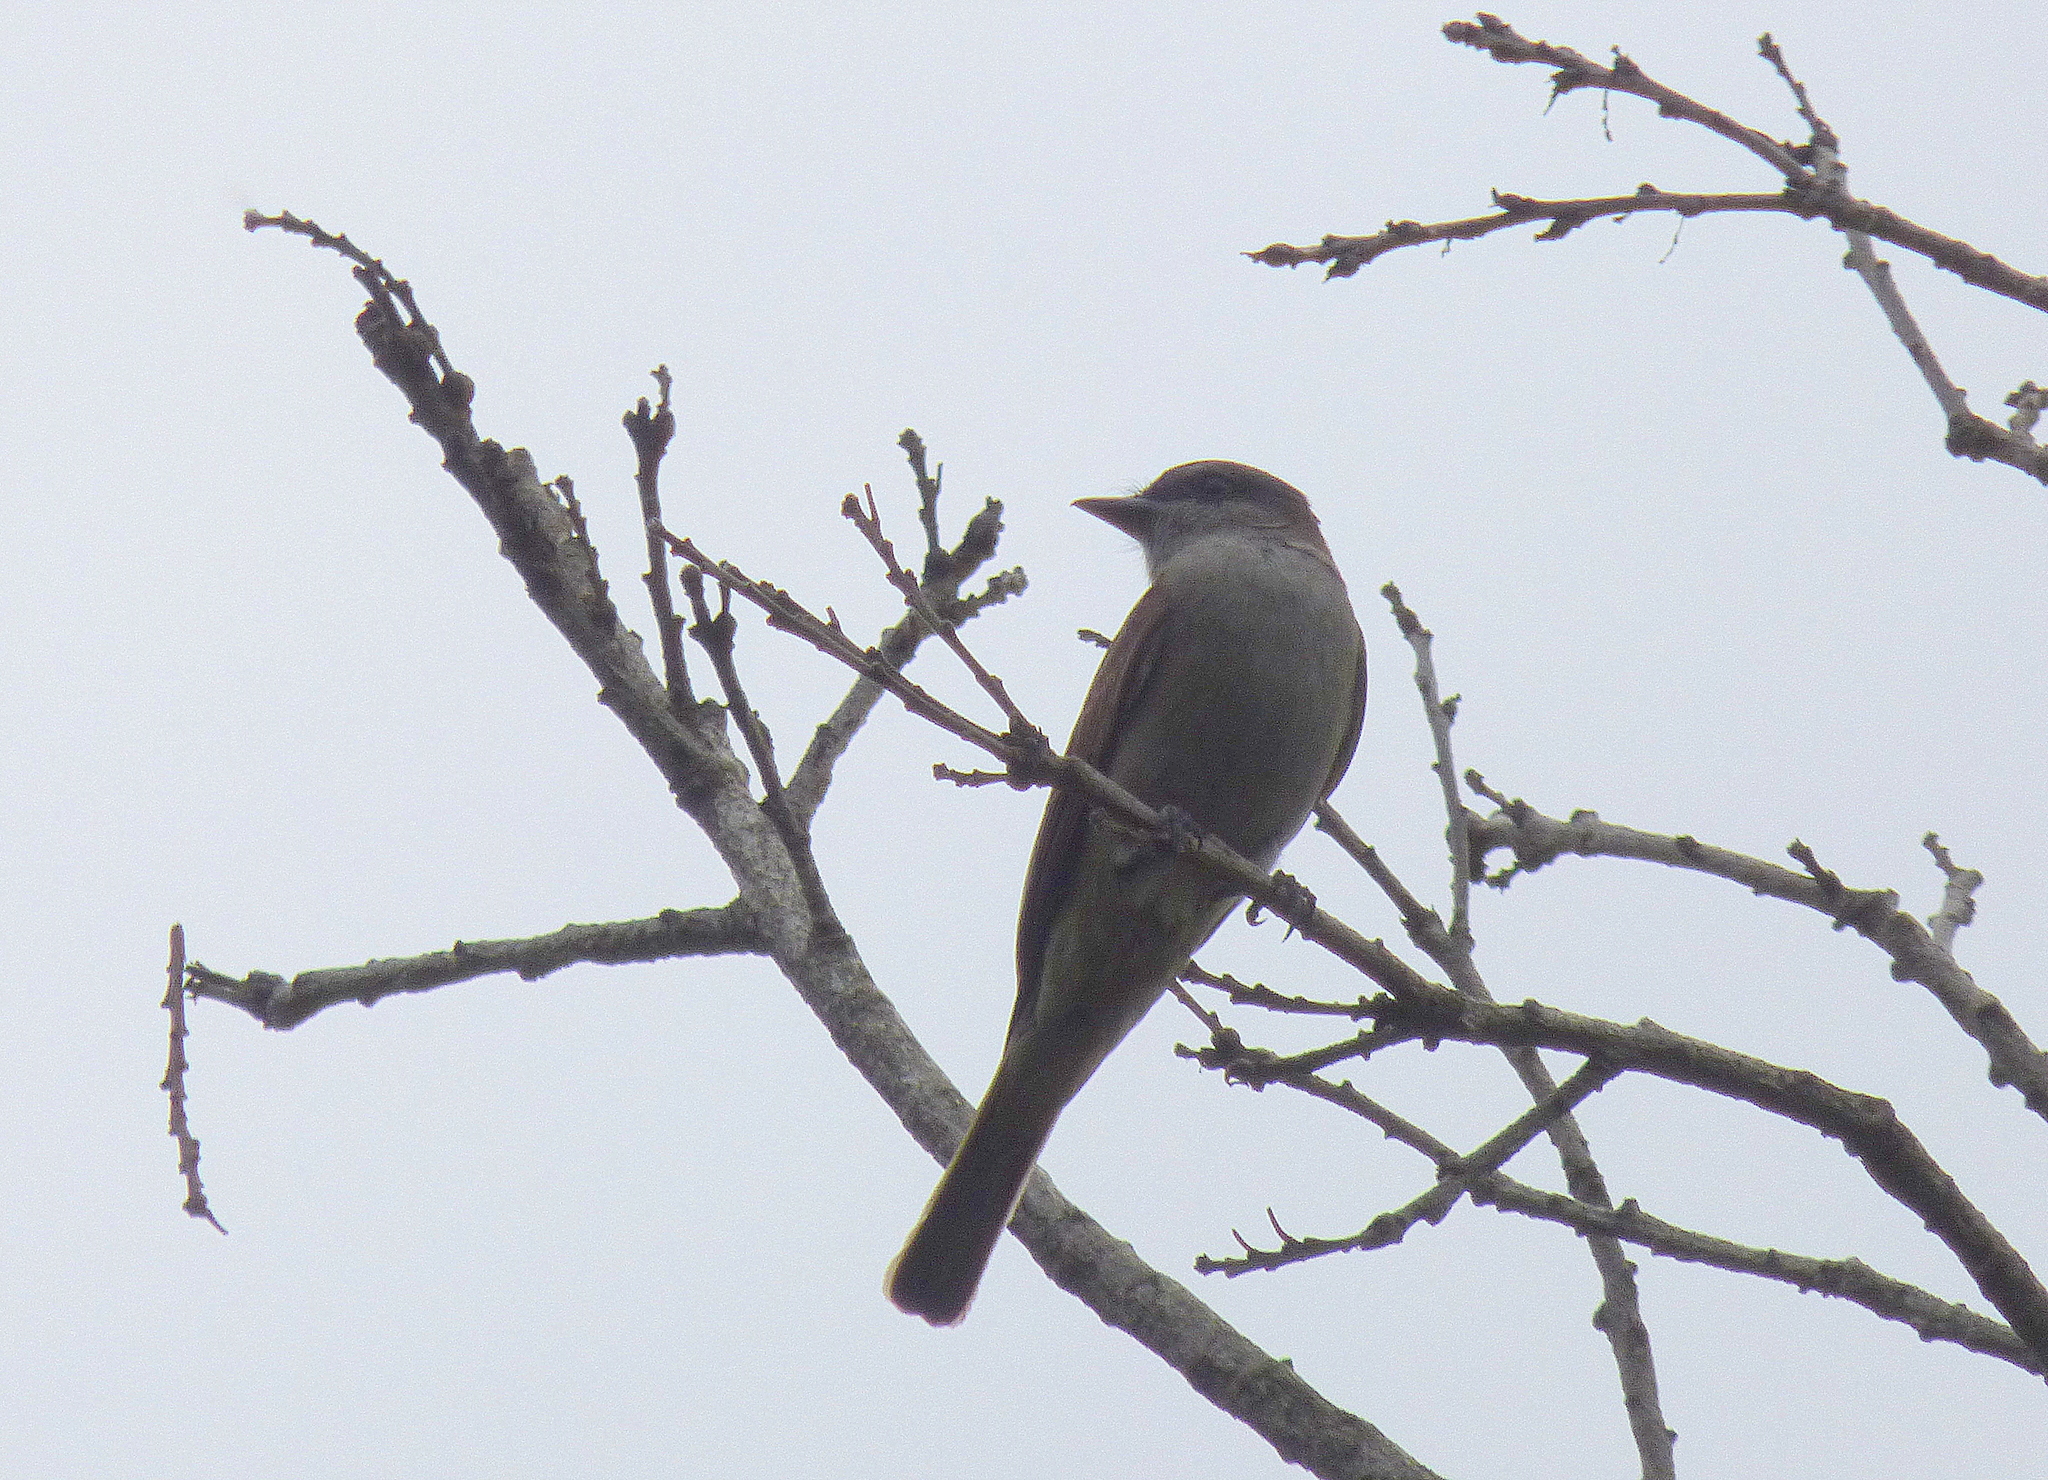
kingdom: Animalia
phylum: Chordata
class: Aves
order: Passeriformes
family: Tyrannidae
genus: Empidonomus
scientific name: Empidonomus aurantioatrocristatus
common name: Crowned slaty flycatcher
